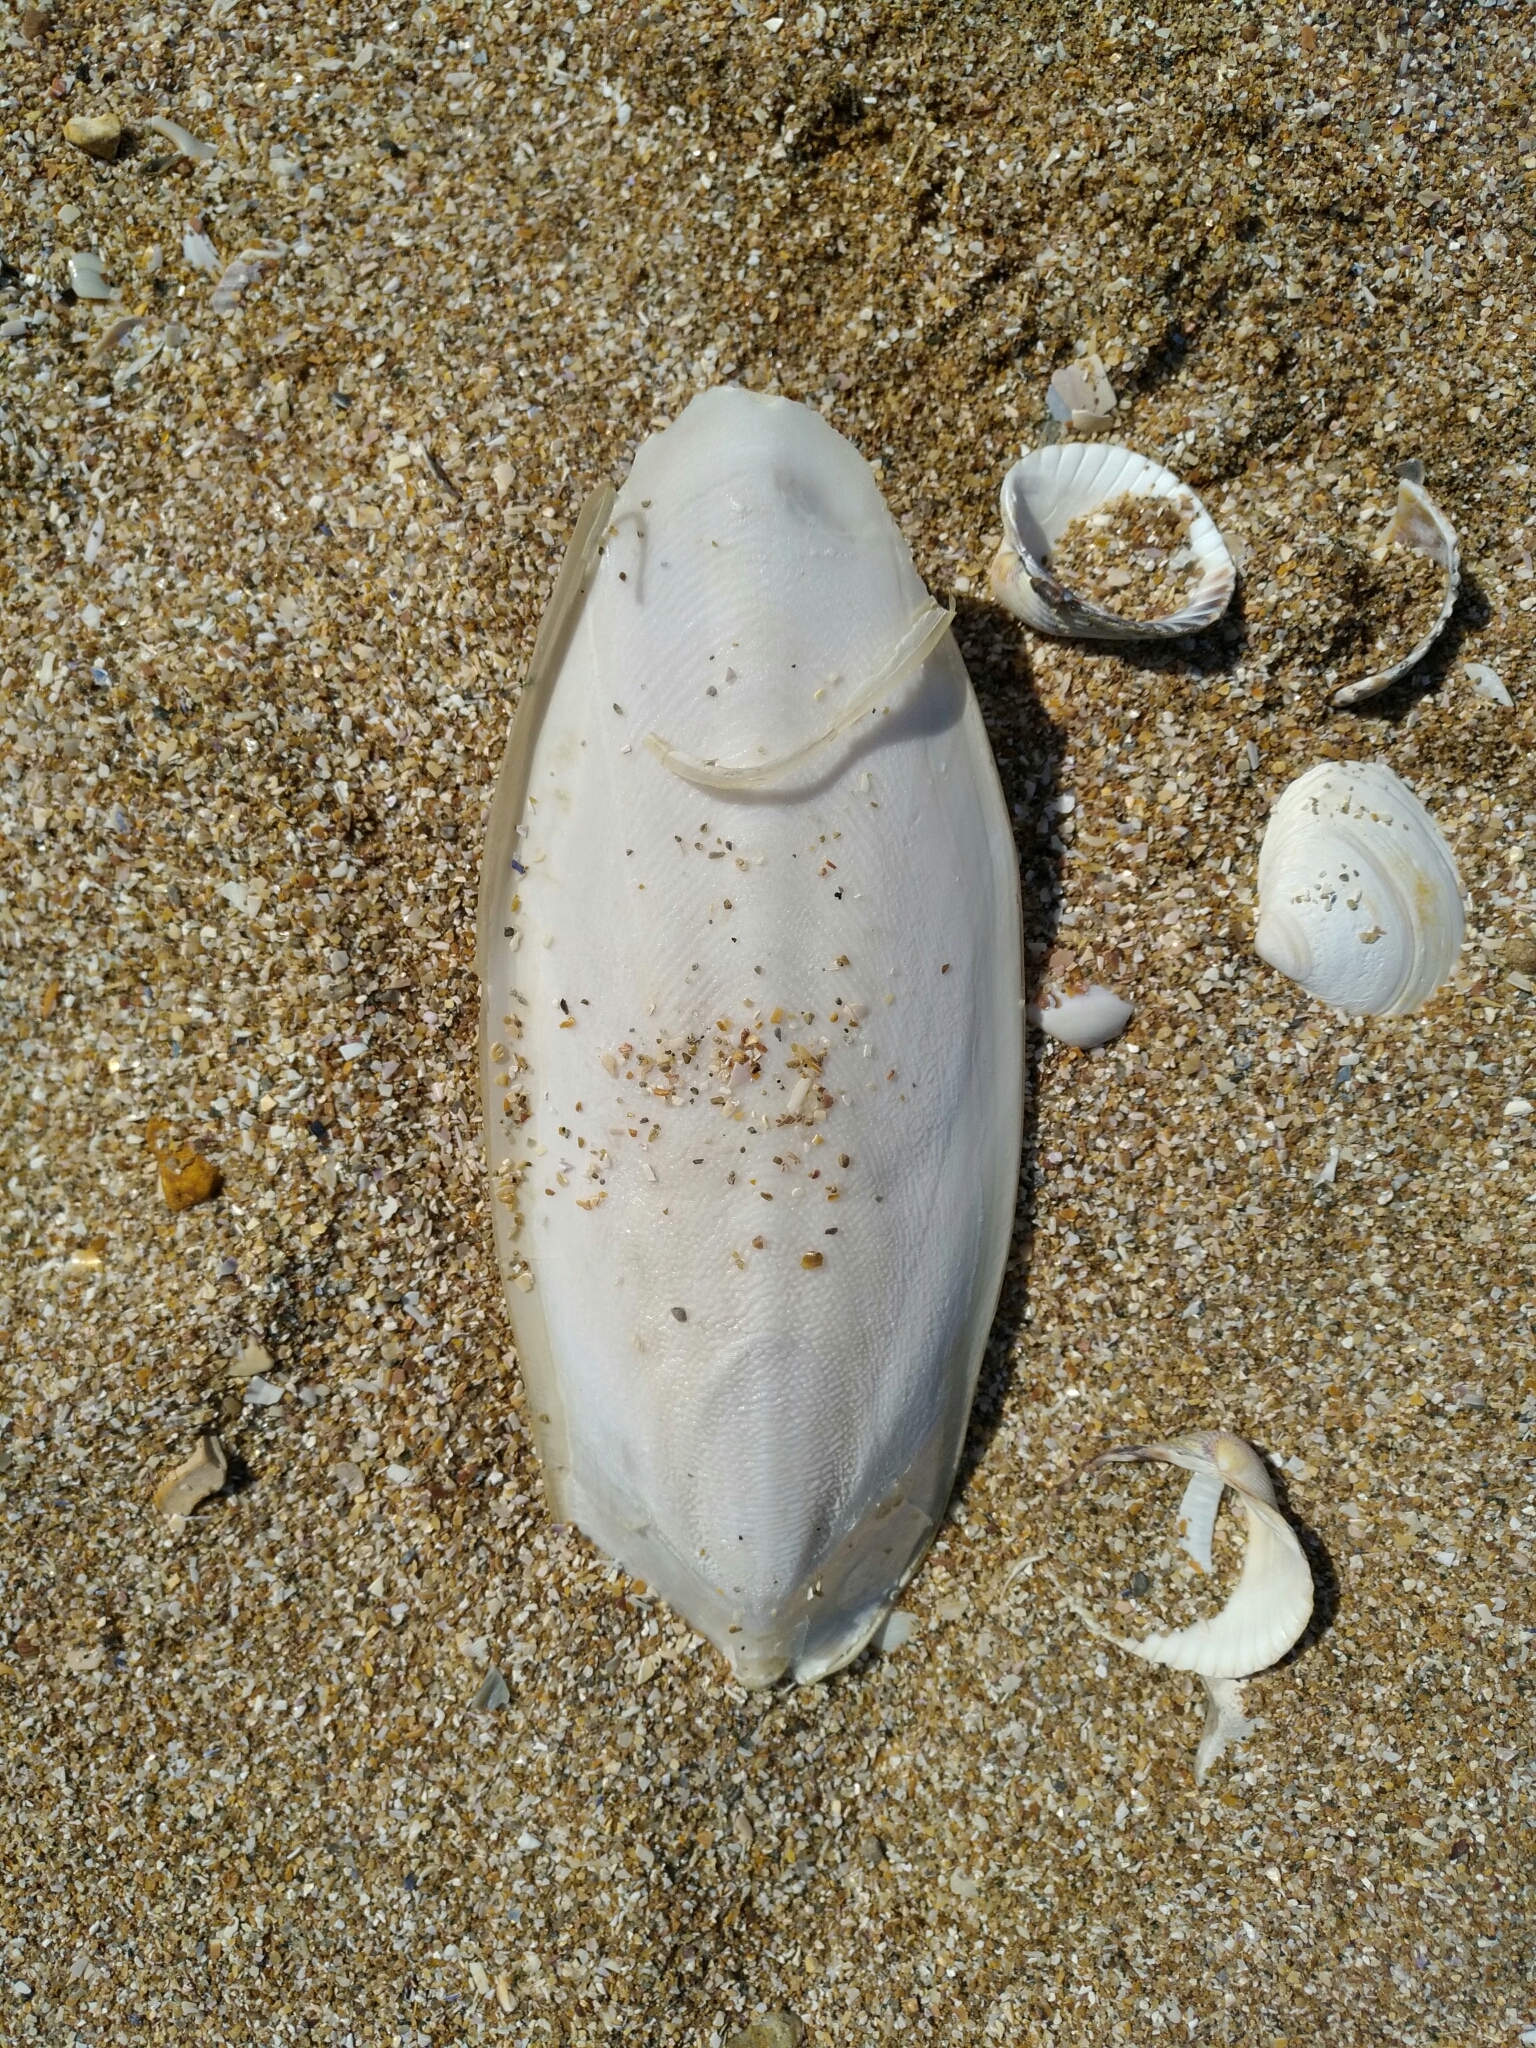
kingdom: Animalia
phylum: Mollusca
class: Cephalopoda
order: Sepiida
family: Sepiidae
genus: Sepia
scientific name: Sepia officinalis
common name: Common cuttlefish
